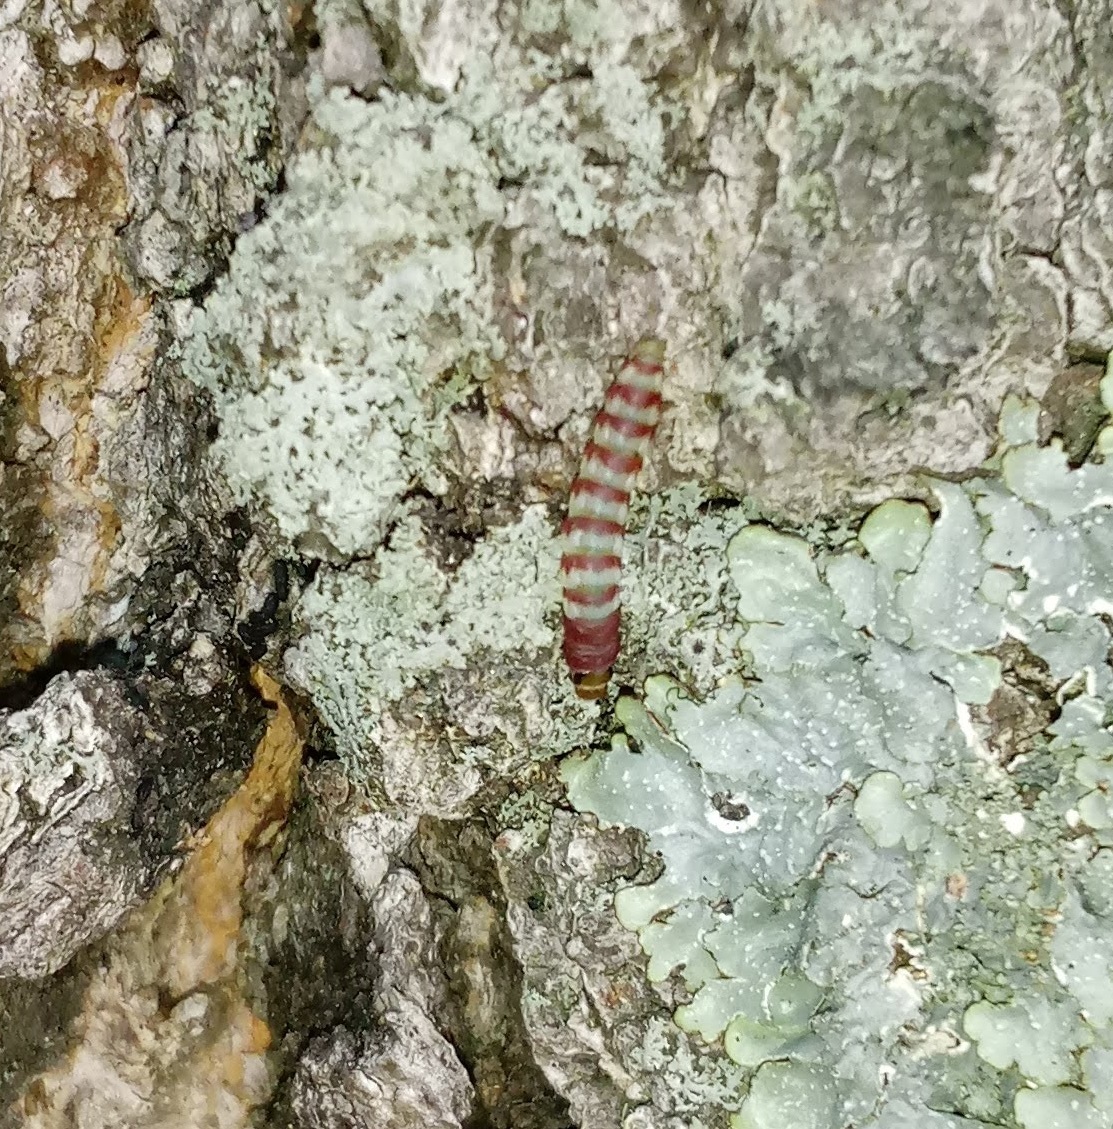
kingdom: Animalia
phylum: Arthropoda
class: Insecta
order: Lepidoptera
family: Gelechiidae
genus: Arogalea
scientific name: Arogalea cristifasciella
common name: White stripe-backed moth
